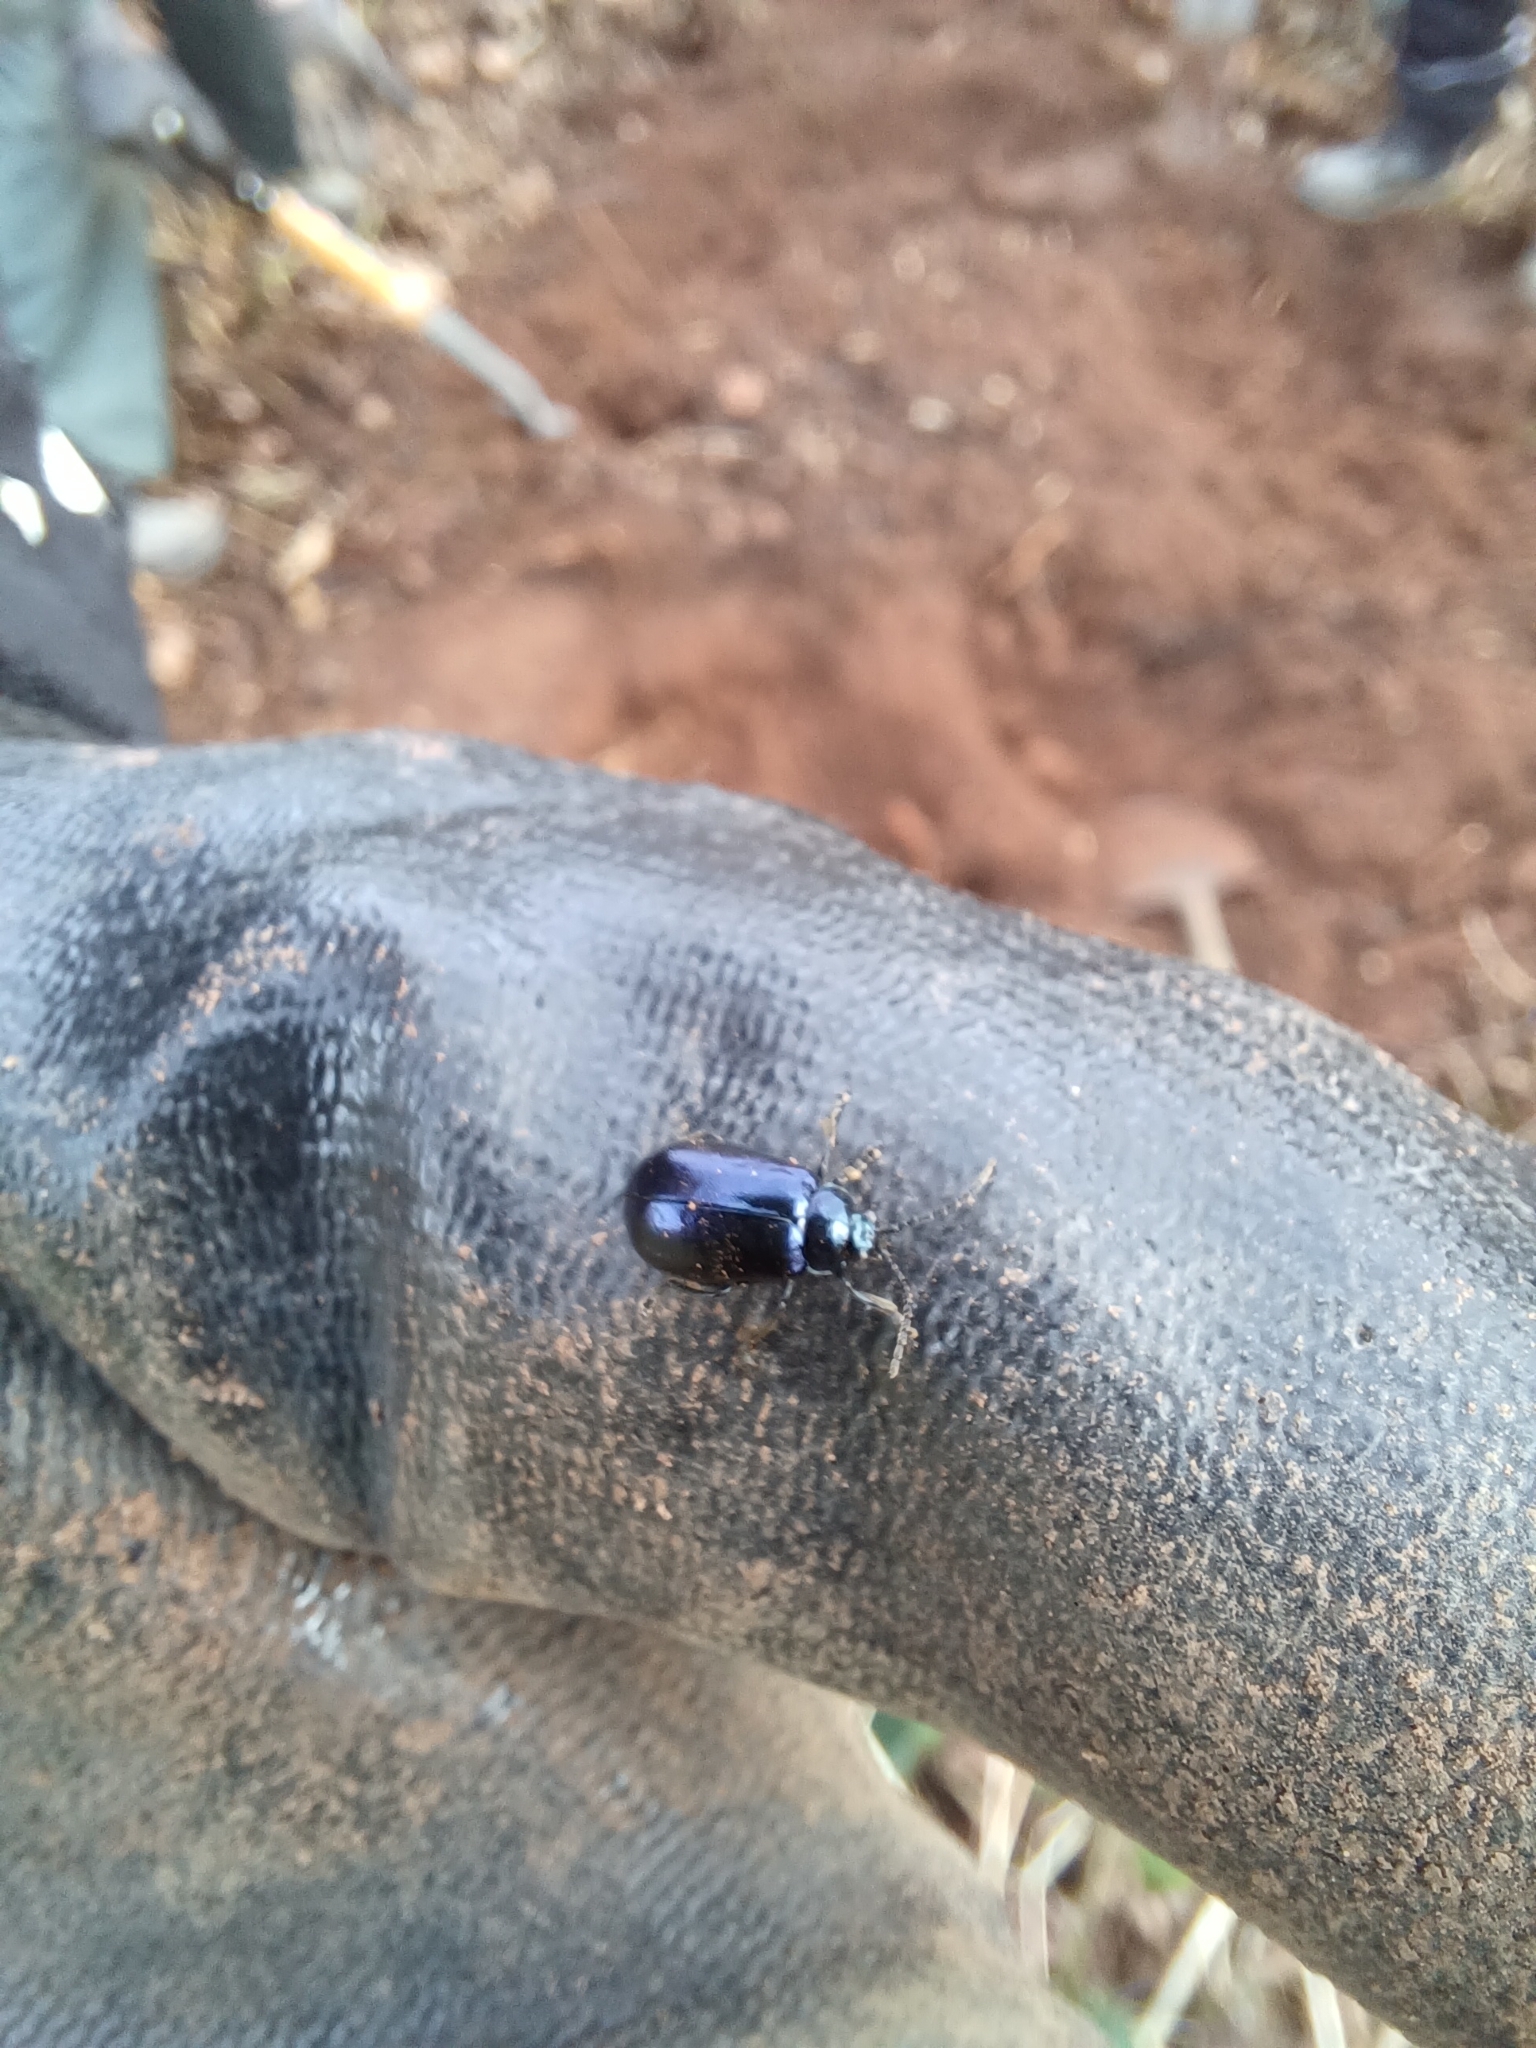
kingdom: Animalia
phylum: Arthropoda
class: Insecta
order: Coleoptera
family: Chrysomelidae
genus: Agelastica
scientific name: Agelastica alni
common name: Alder leaf beetle
